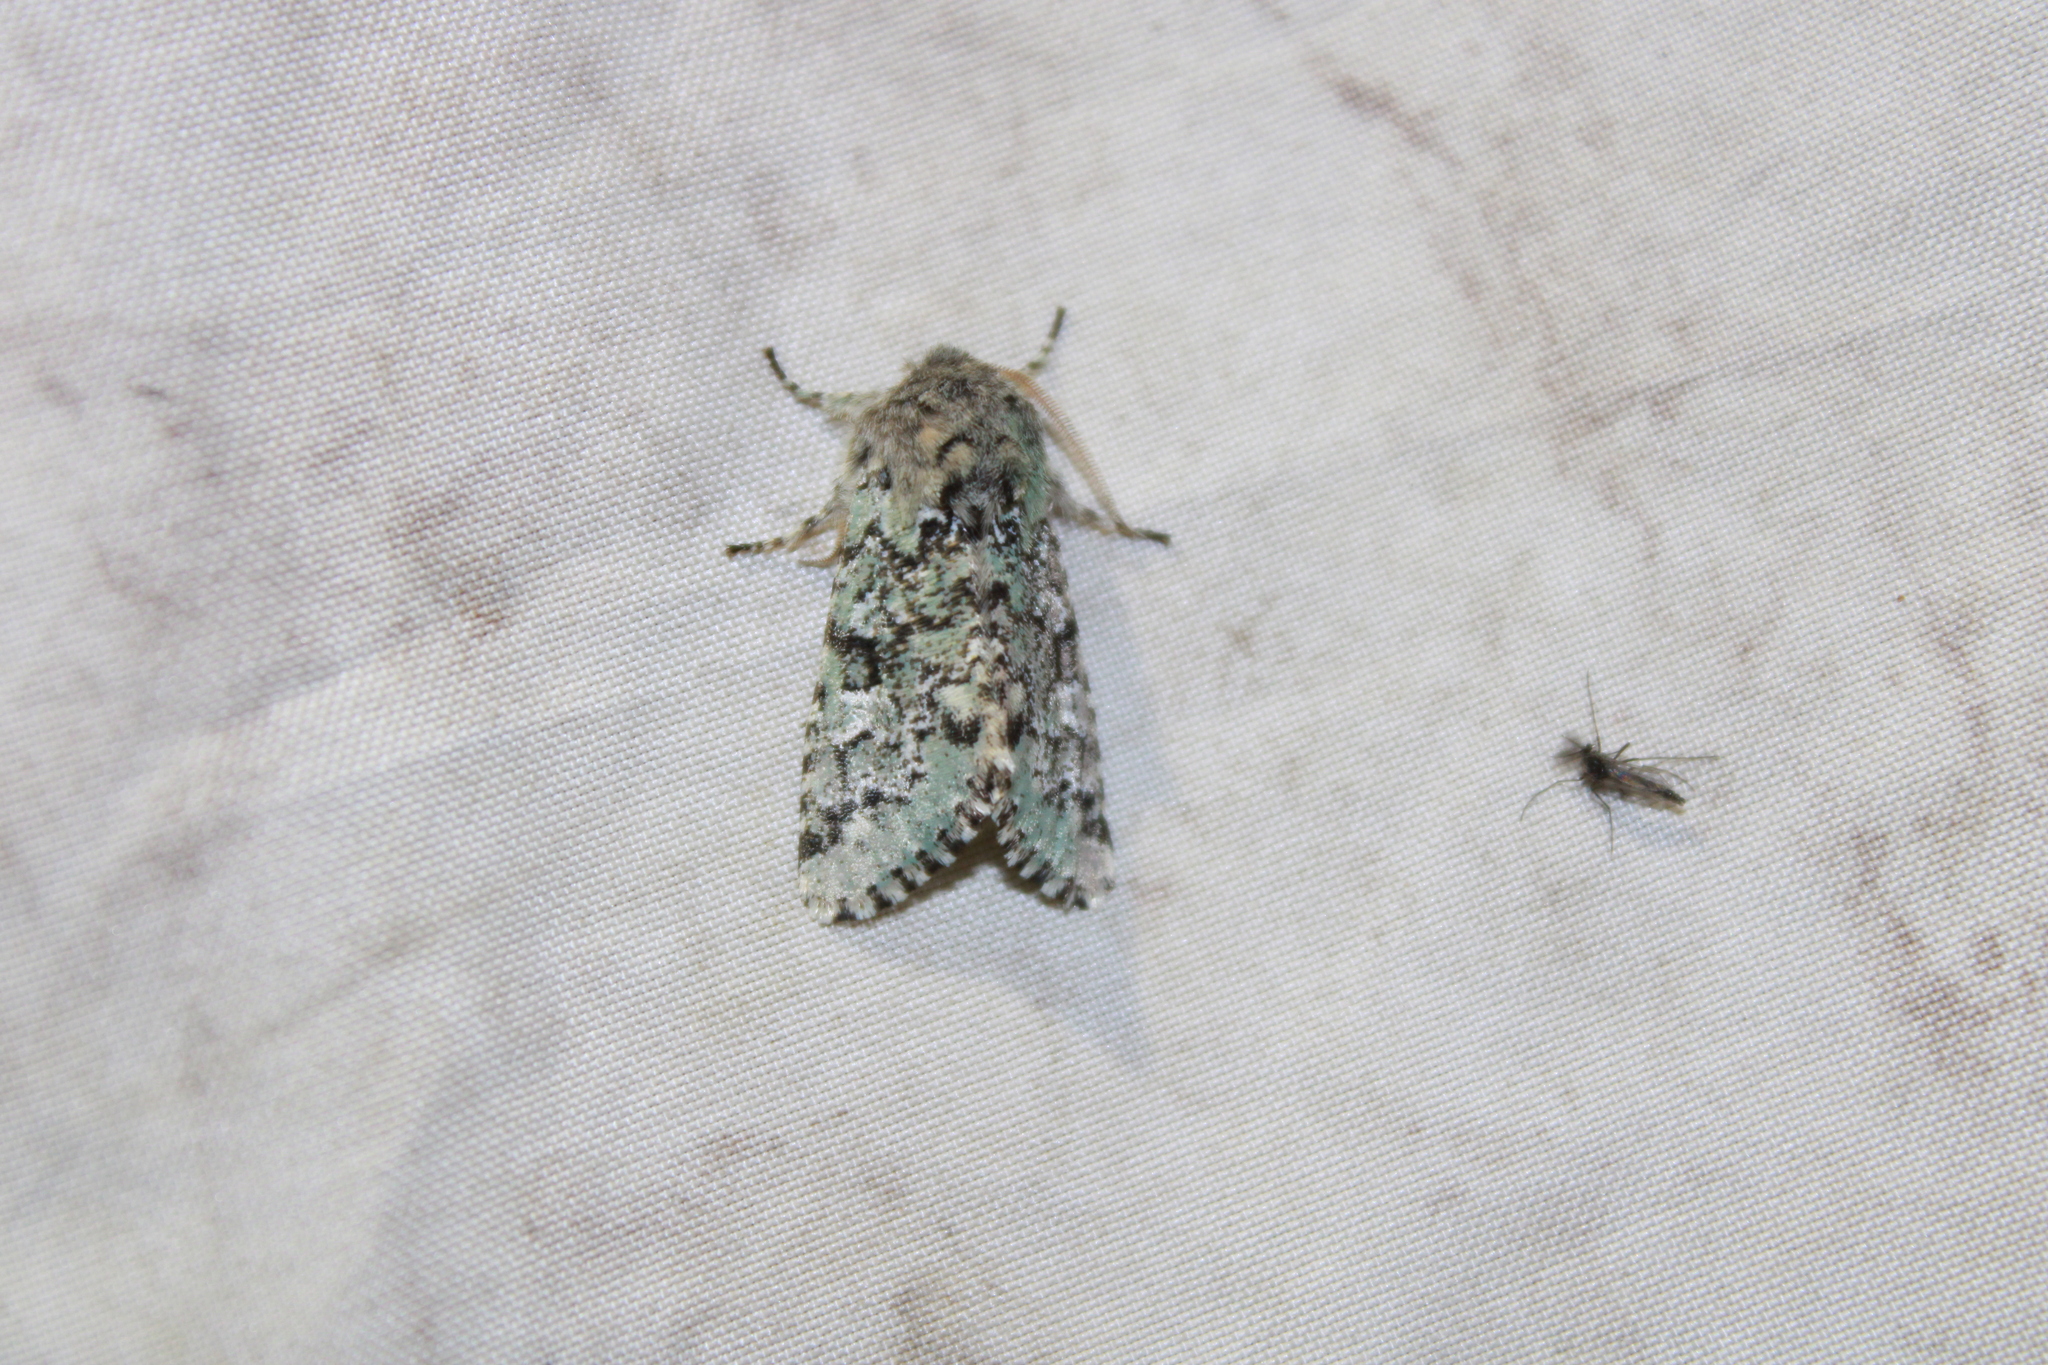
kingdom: Animalia
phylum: Arthropoda
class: Insecta
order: Lepidoptera
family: Noctuidae
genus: Feralia
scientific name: Feralia major
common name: Major sallow
